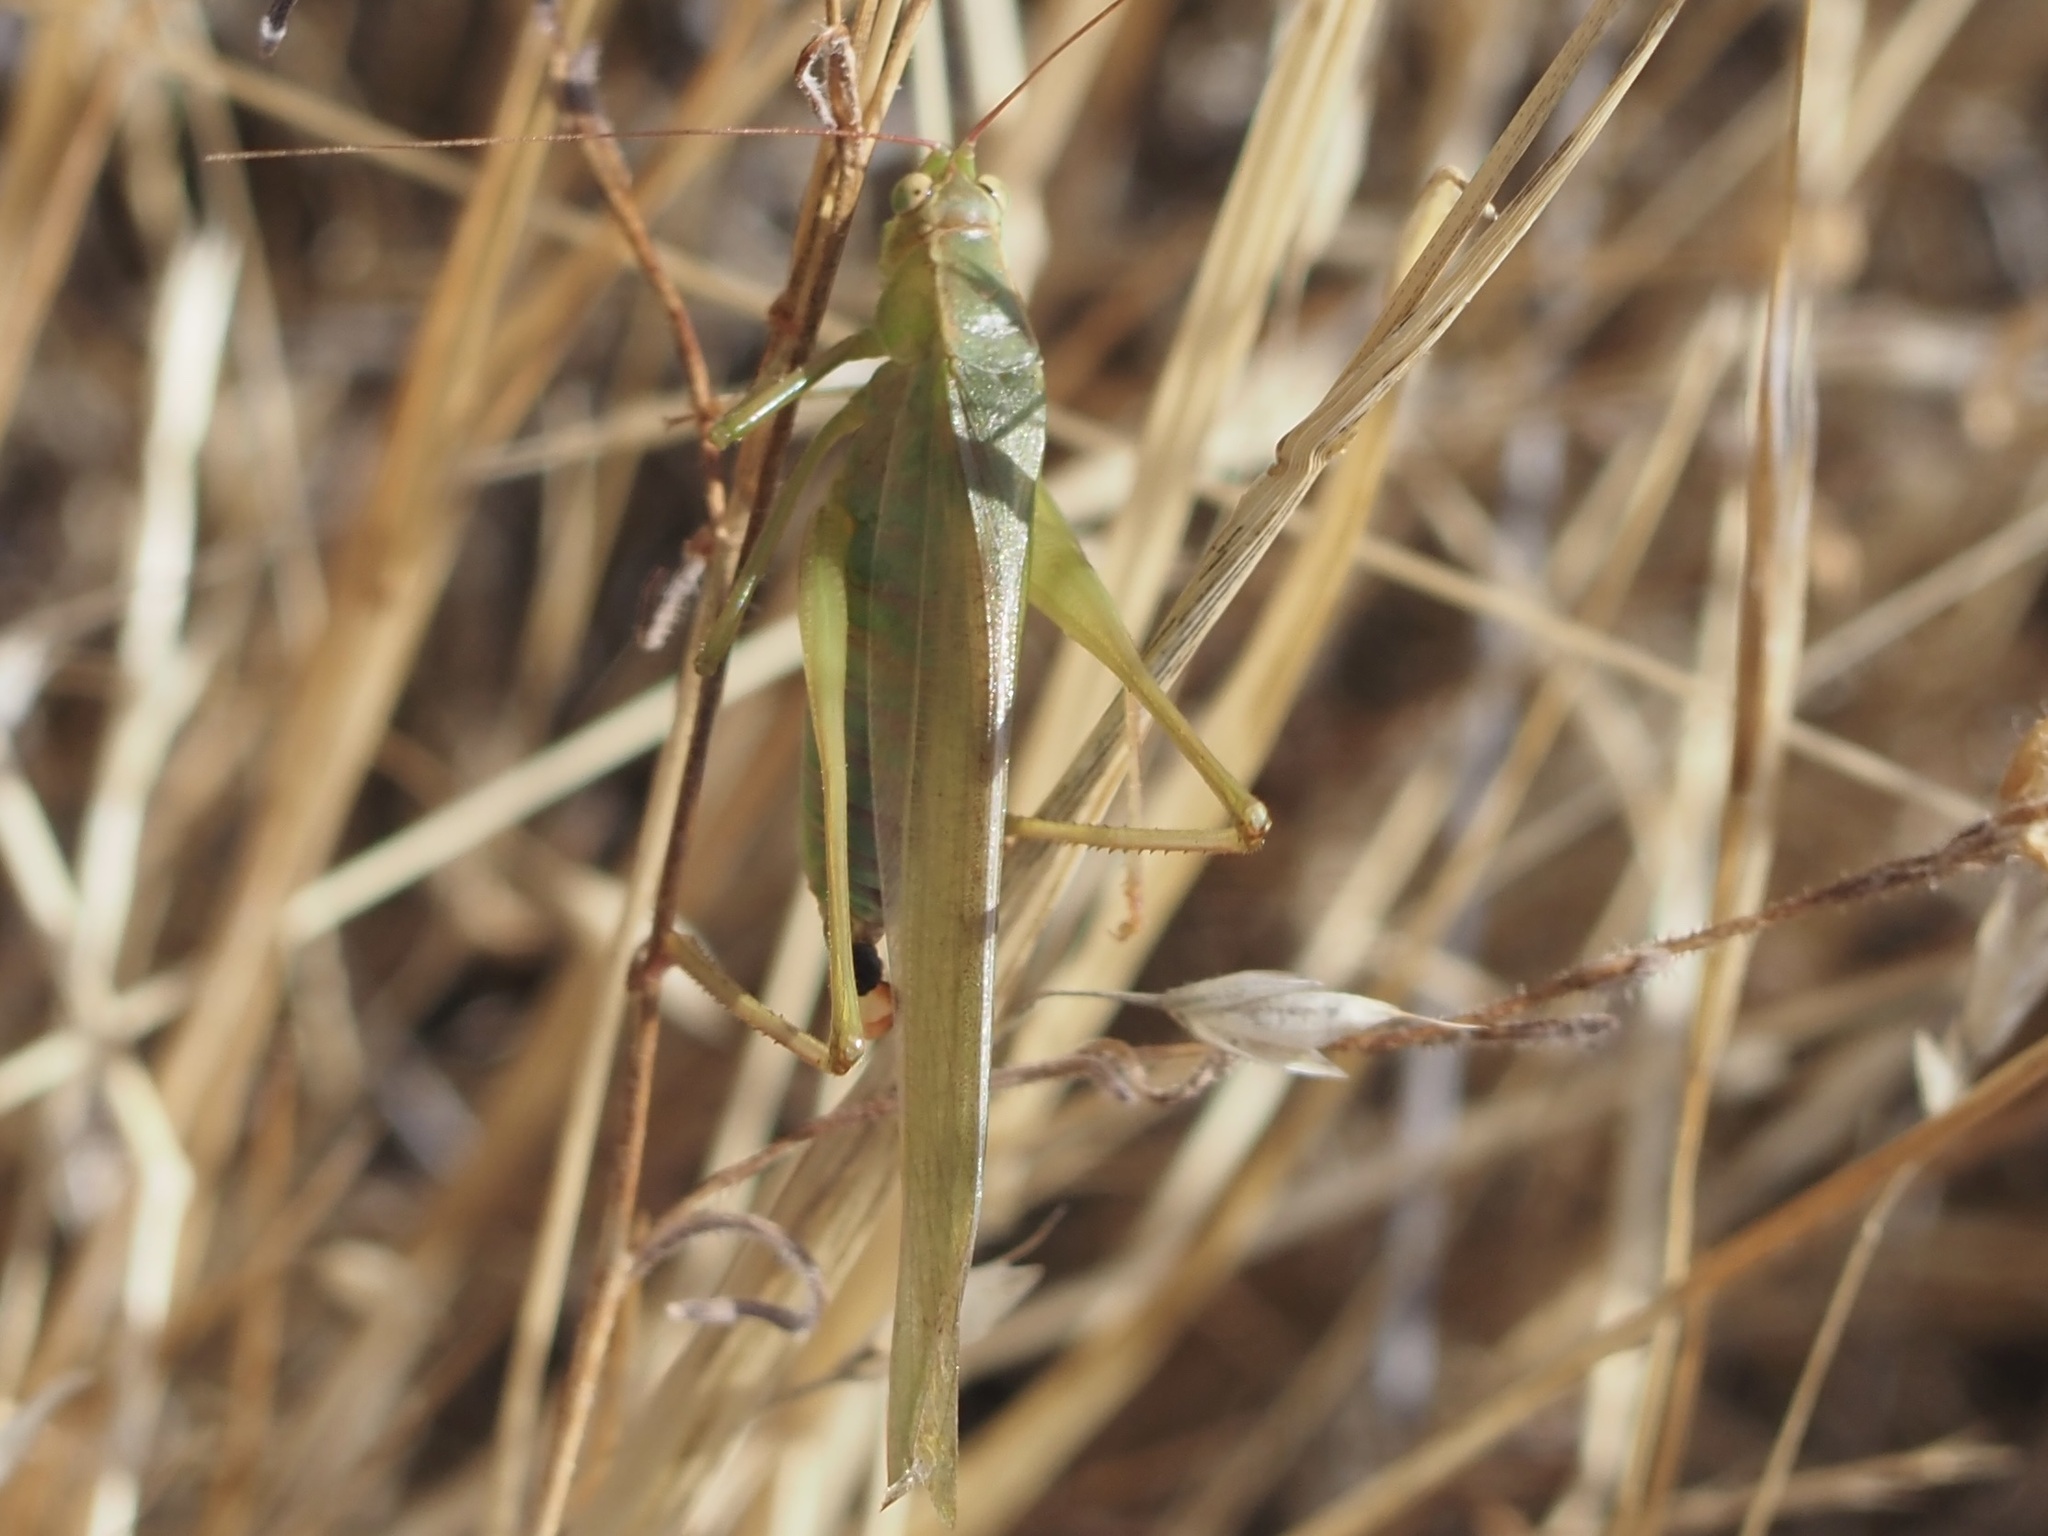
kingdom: Animalia
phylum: Arthropoda
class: Insecta
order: Orthoptera
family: Tettigoniidae
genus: Scudderia
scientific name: Scudderia
